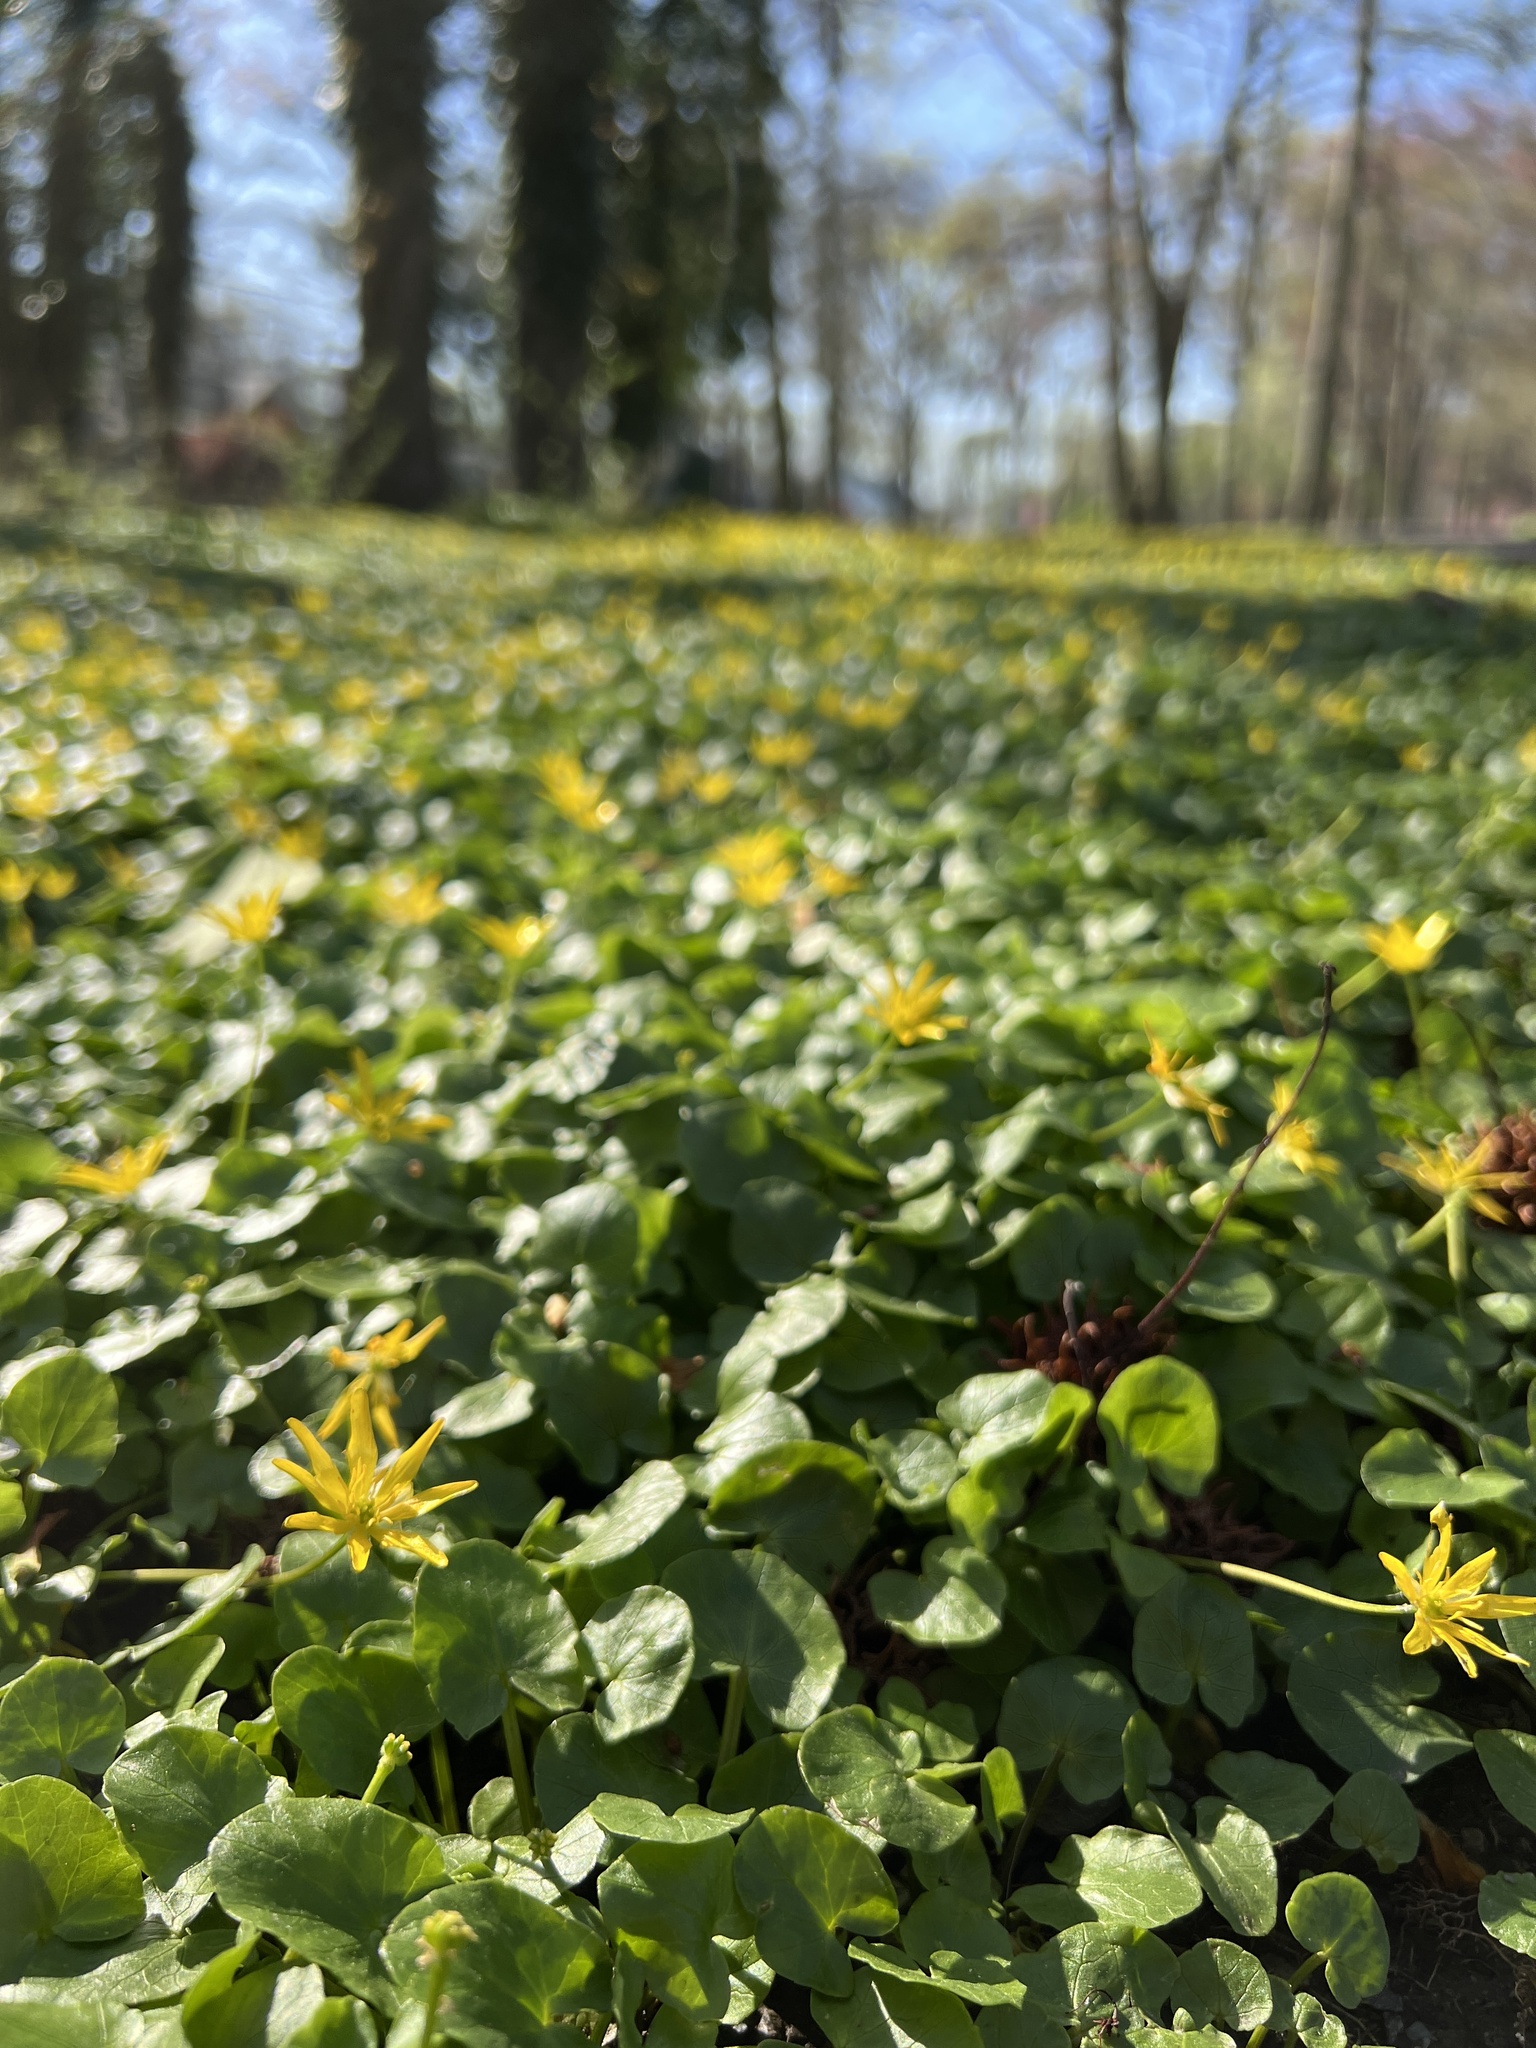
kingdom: Plantae
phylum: Tracheophyta
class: Magnoliopsida
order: Ranunculales
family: Ranunculaceae
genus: Ficaria
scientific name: Ficaria verna
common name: Lesser celandine
